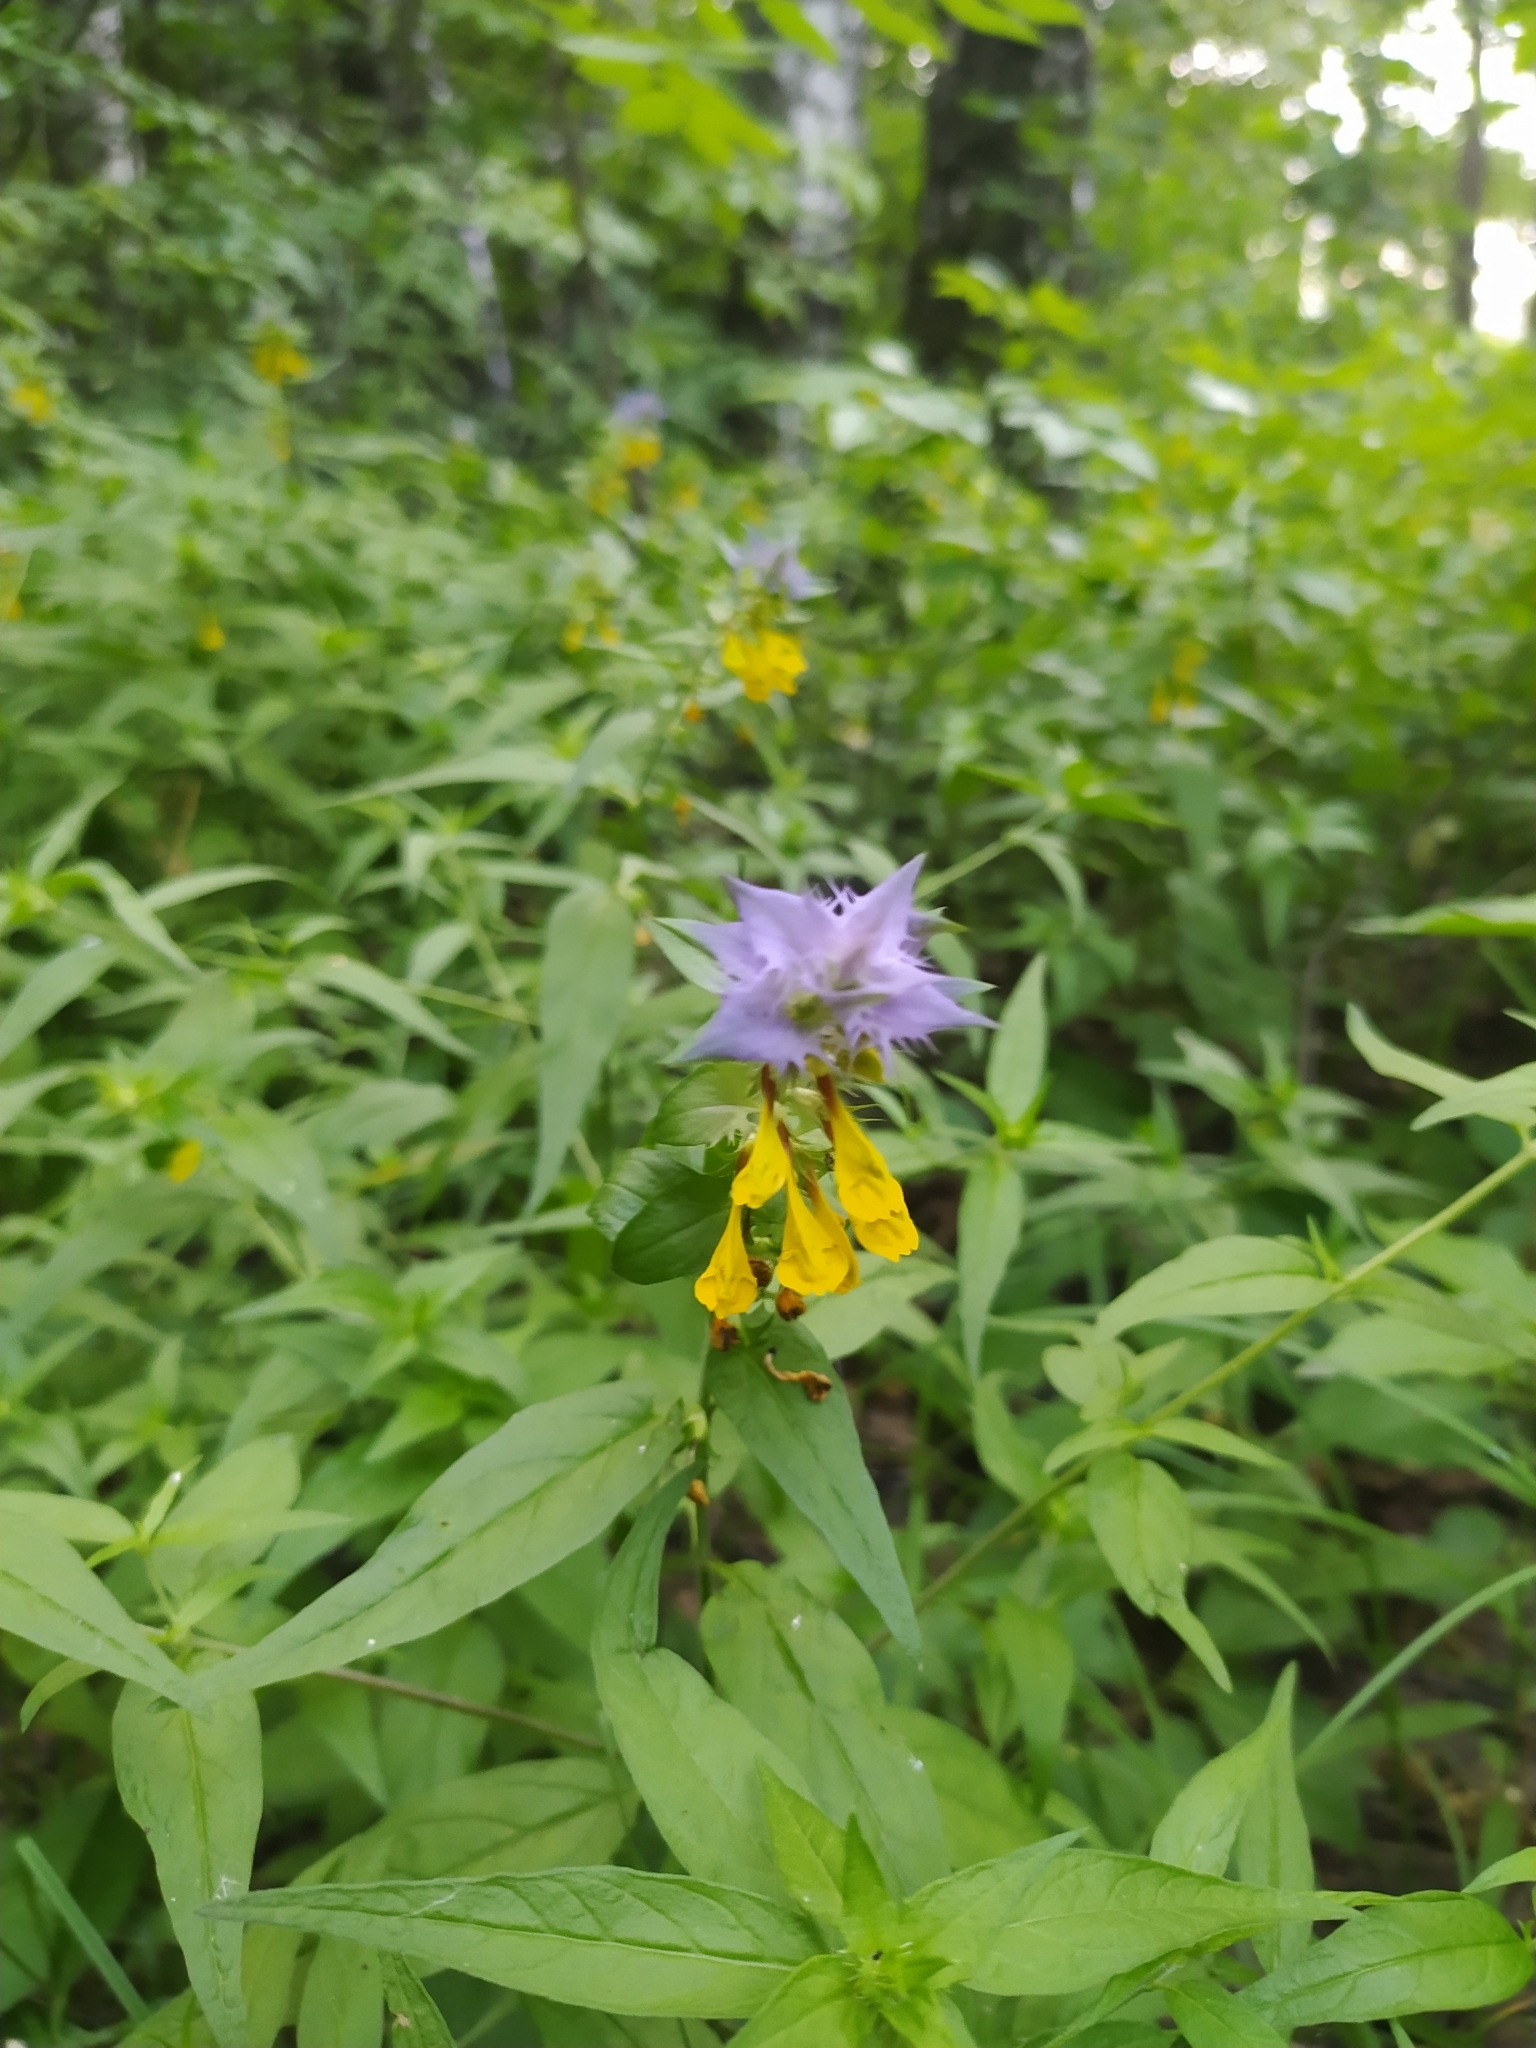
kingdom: Plantae
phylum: Tracheophyta
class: Magnoliopsida
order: Lamiales
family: Orobanchaceae
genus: Melampyrum
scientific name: Melampyrum nemorosum
